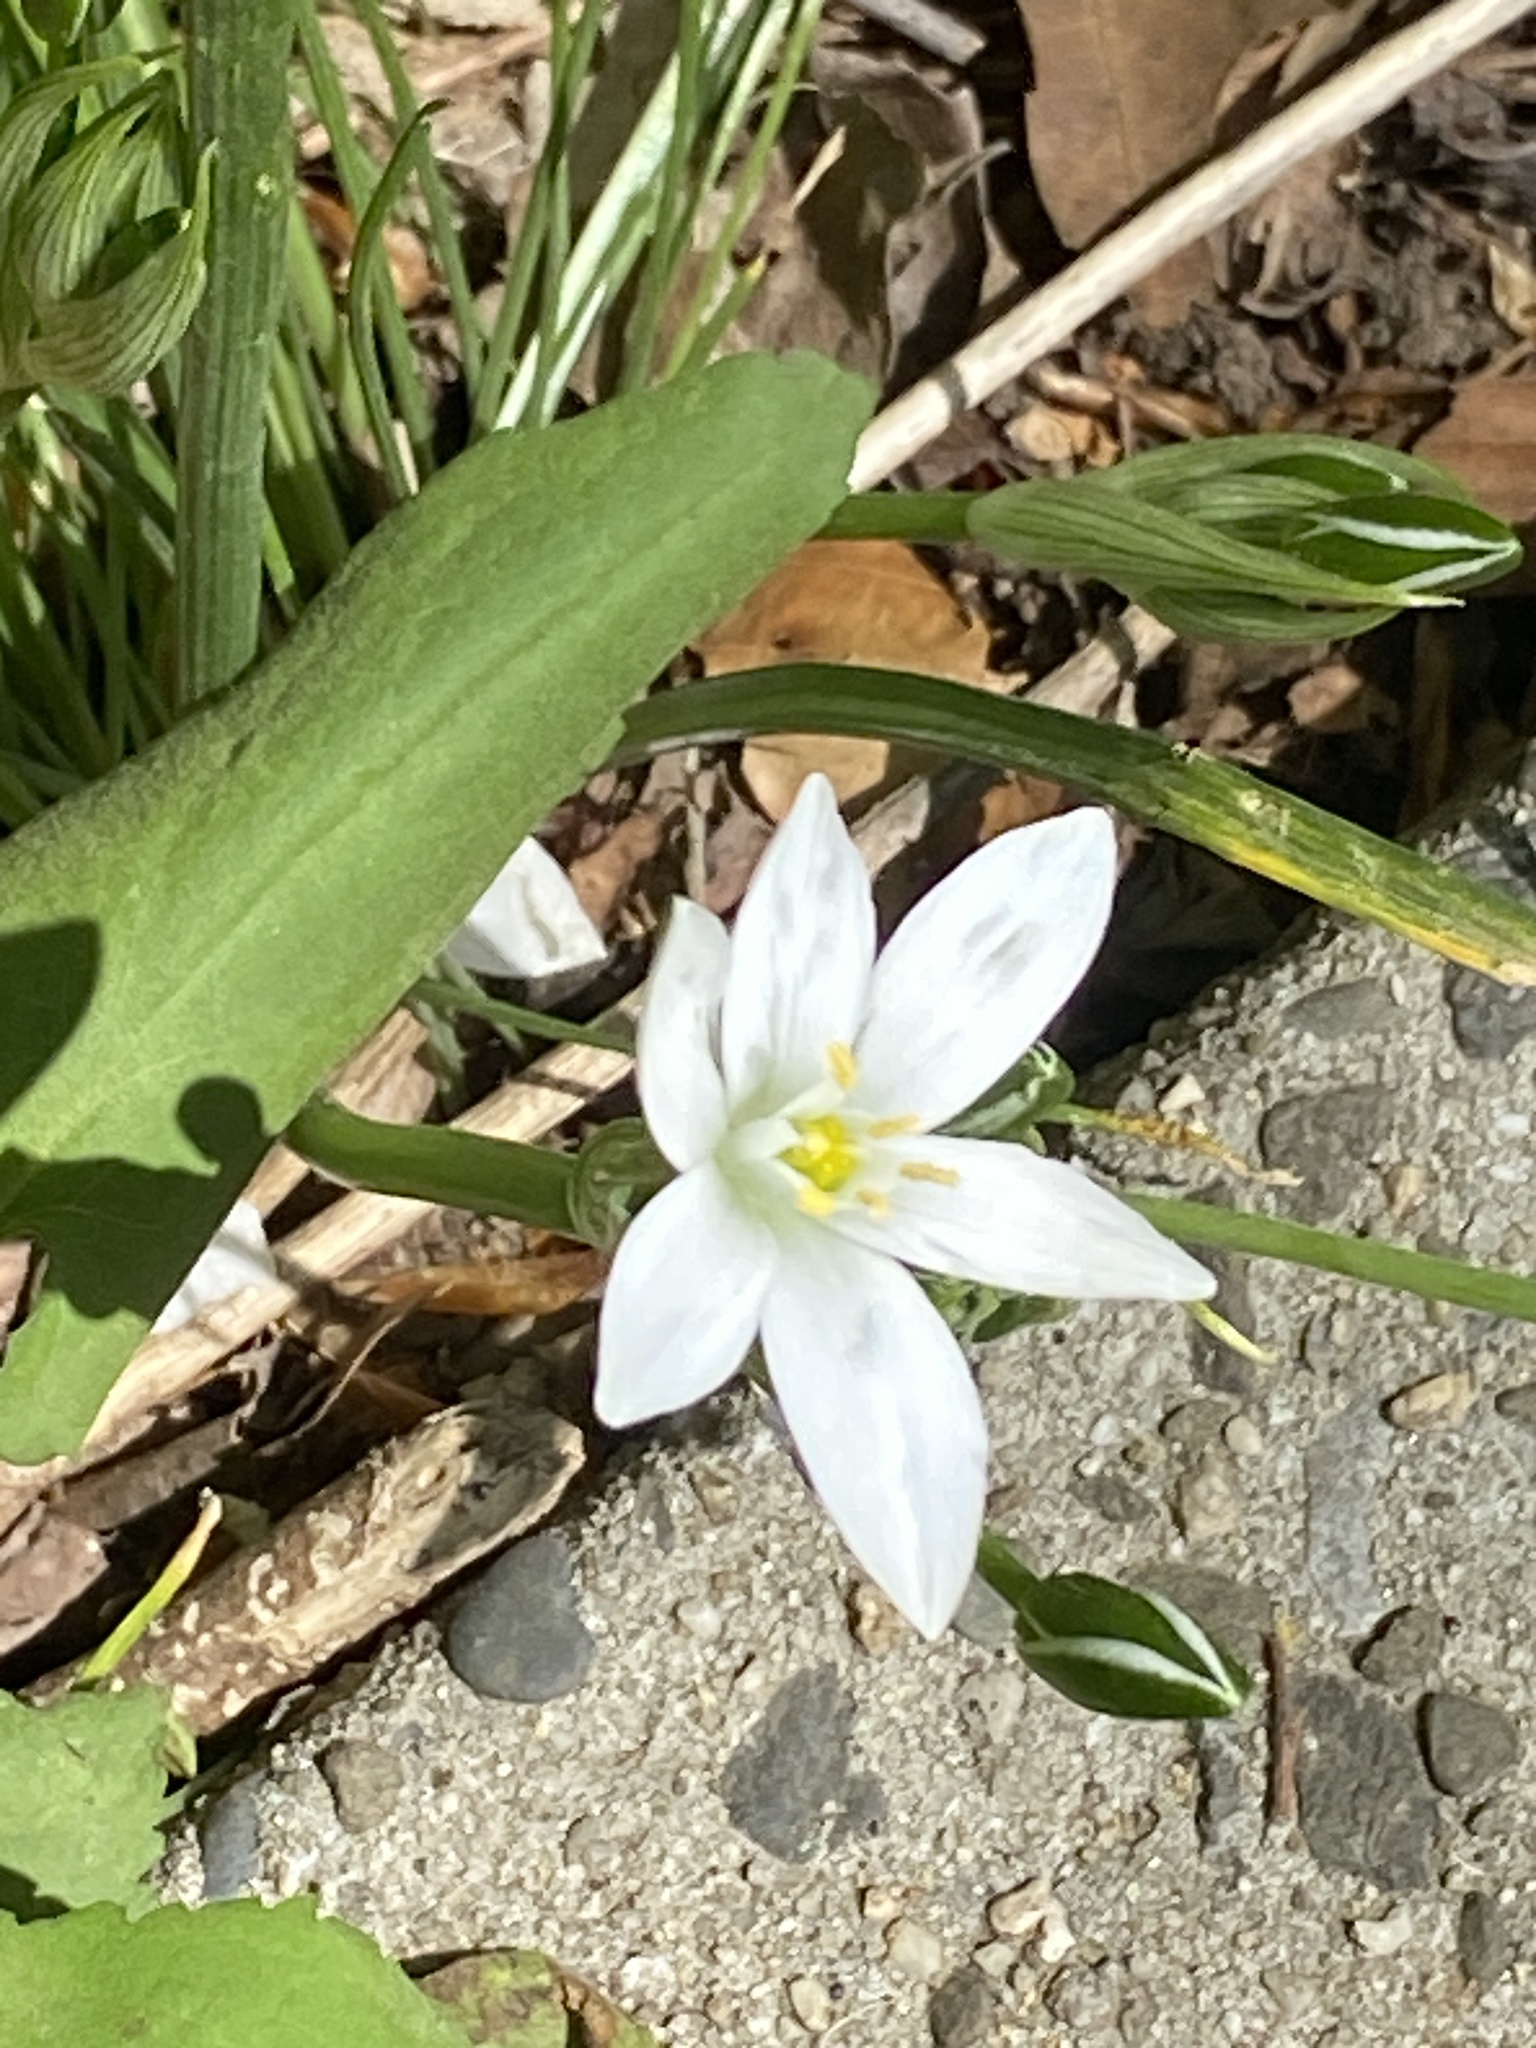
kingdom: Plantae
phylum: Tracheophyta
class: Liliopsida
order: Asparagales
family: Asparagaceae
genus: Ornithogalum
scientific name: Ornithogalum umbellatum
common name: Garden star-of-bethlehem
